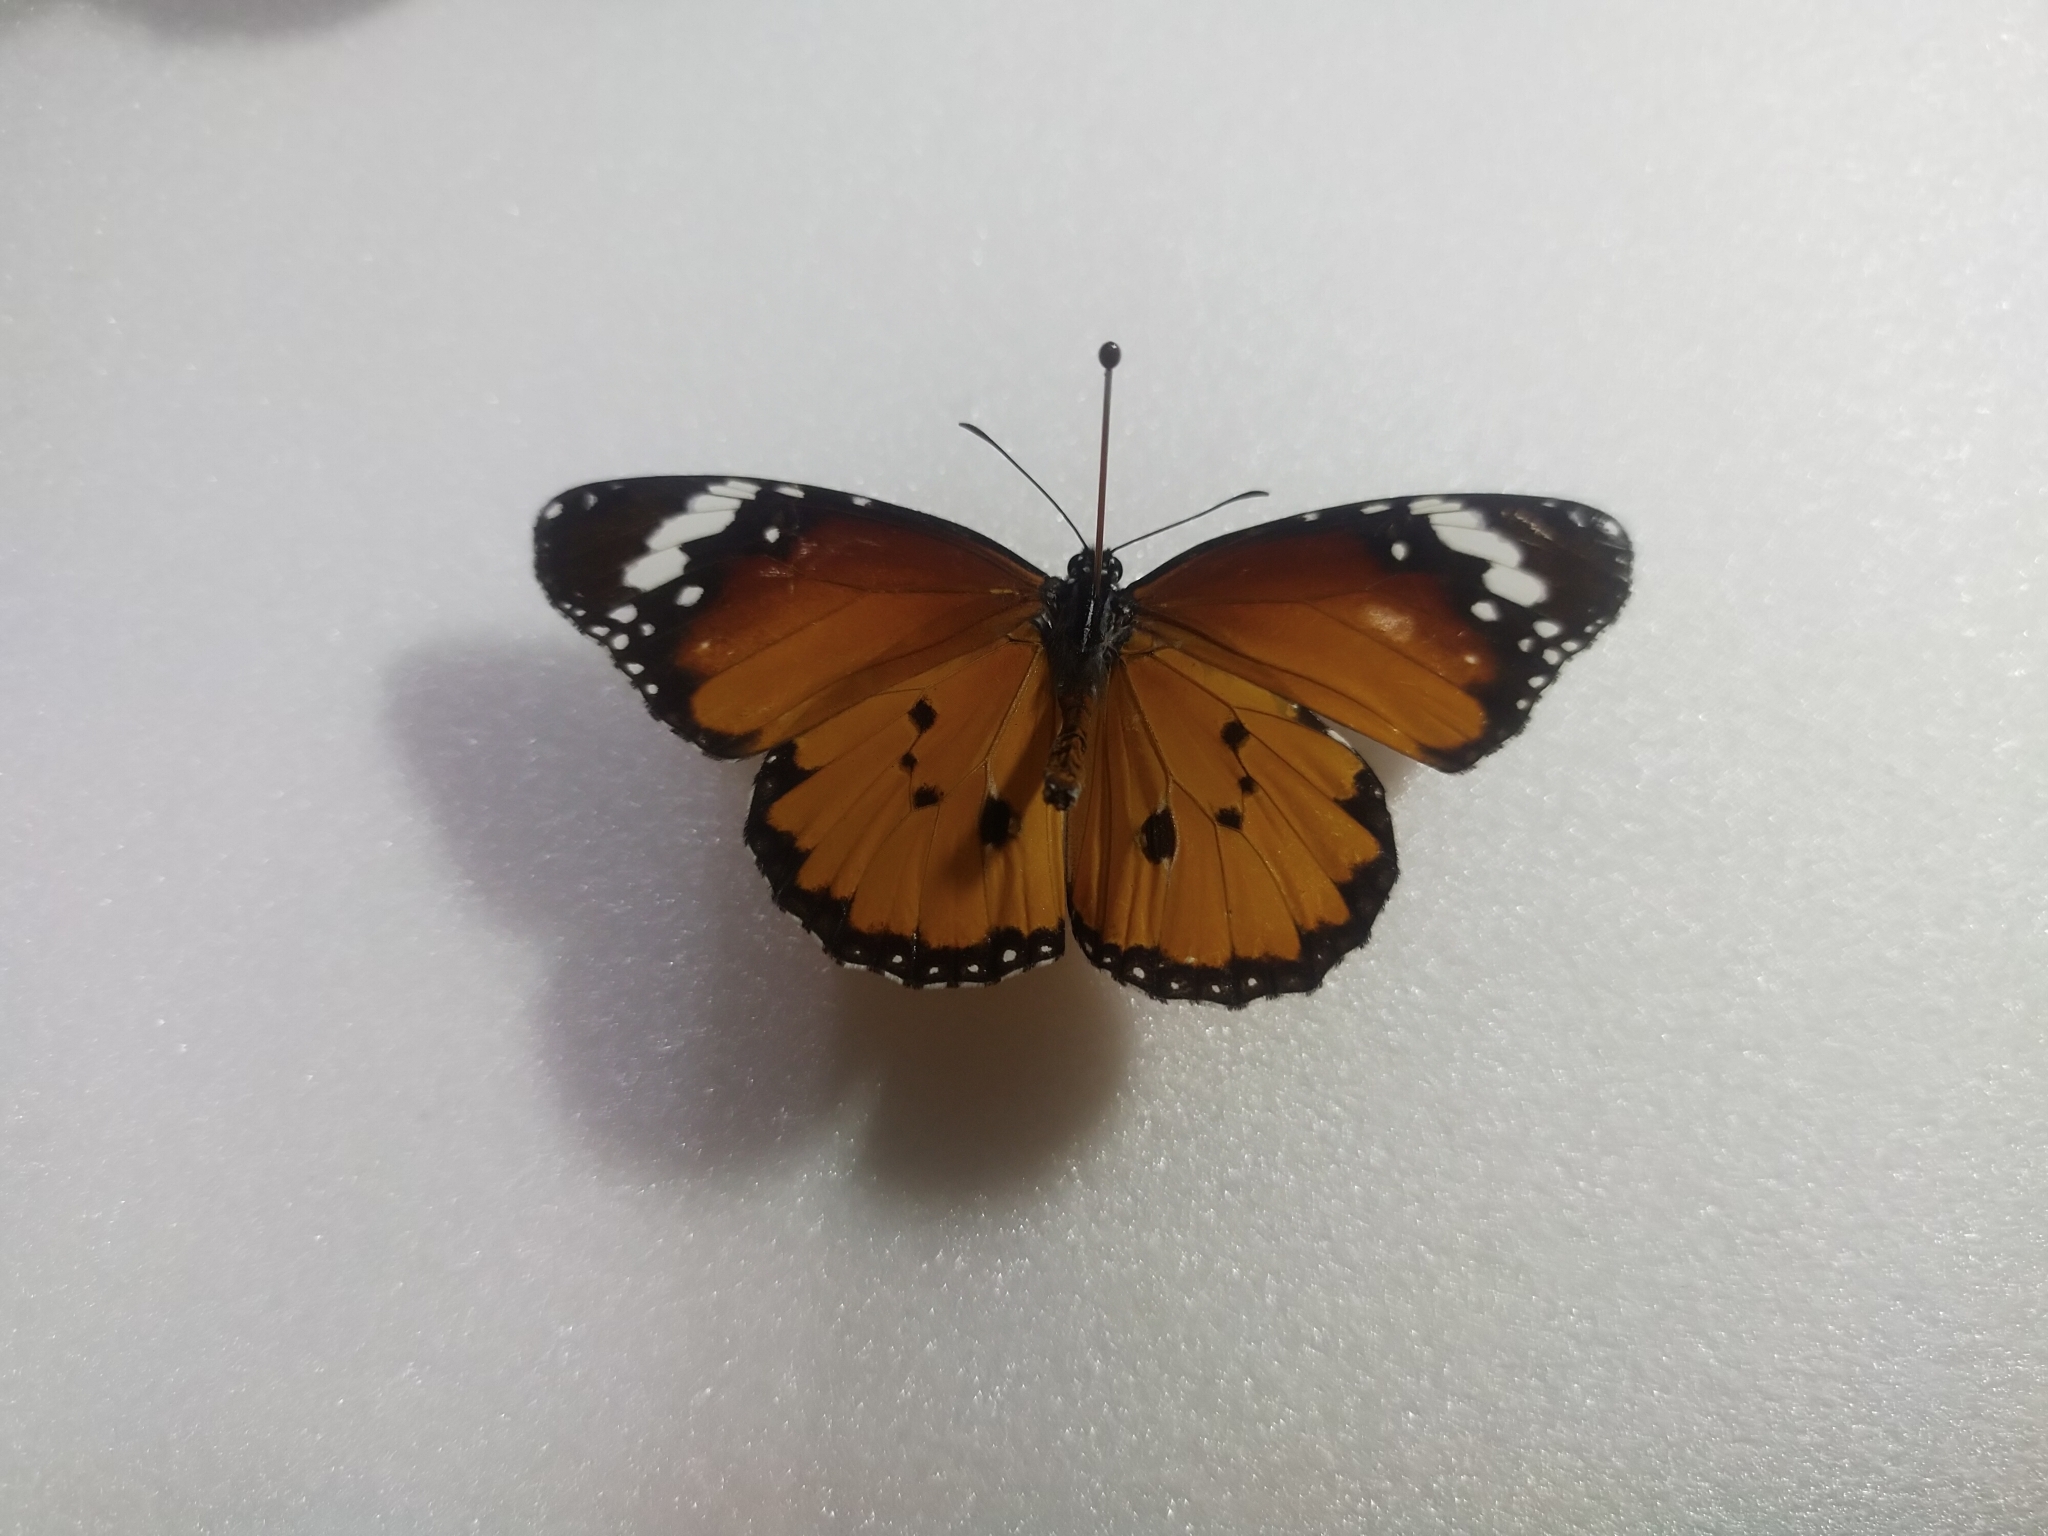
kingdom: Animalia
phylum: Arthropoda
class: Insecta
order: Lepidoptera
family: Nymphalidae
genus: Danaus
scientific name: Danaus chrysippus
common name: Plain tiger
